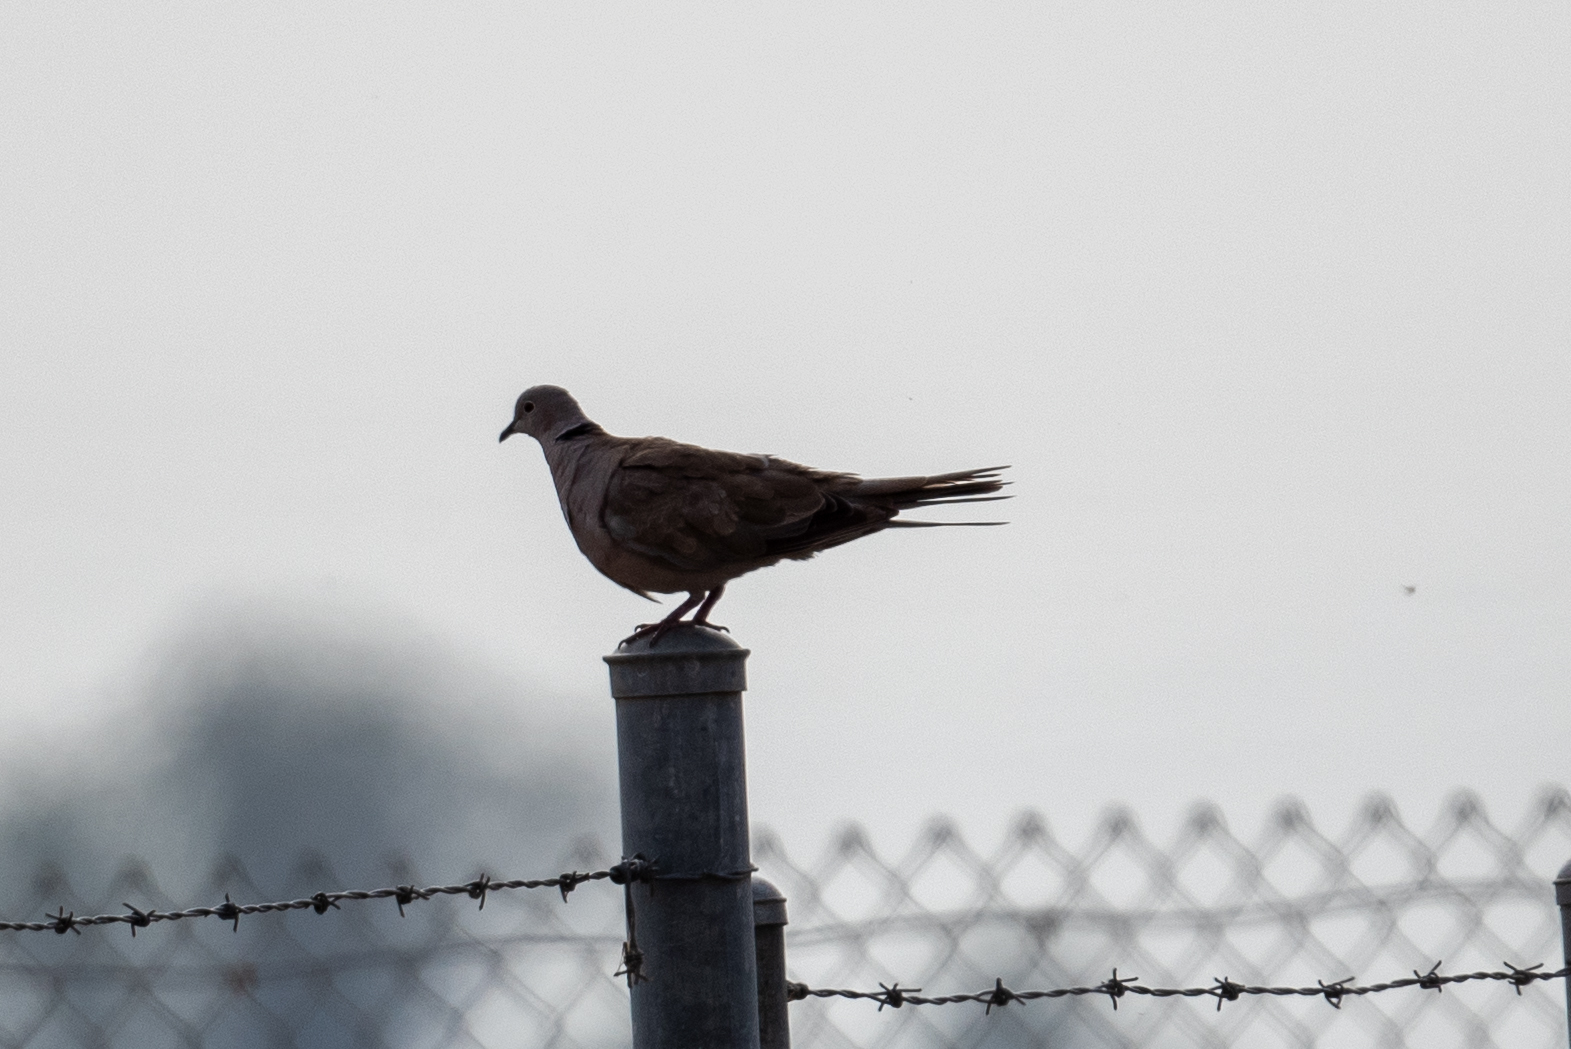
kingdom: Animalia
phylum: Chordata
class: Aves
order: Columbiformes
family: Columbidae
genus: Streptopelia
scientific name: Streptopelia decaocto
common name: Eurasian collared dove
